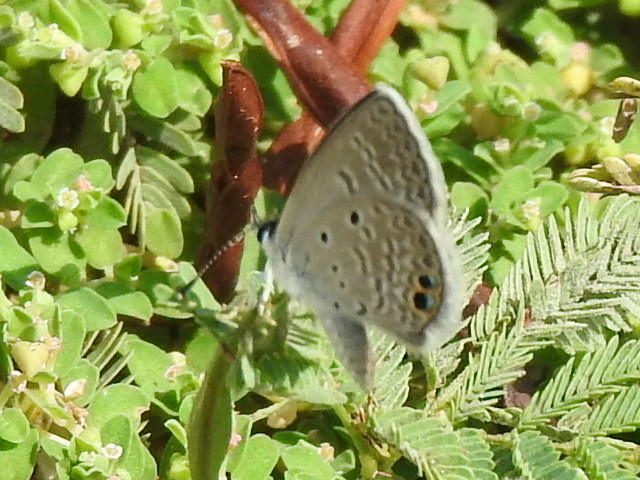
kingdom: Animalia
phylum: Arthropoda
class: Insecta
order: Lepidoptera
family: Lycaenidae
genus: Hemiargus
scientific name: Hemiargus ceraunus
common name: Ceraunus blue
